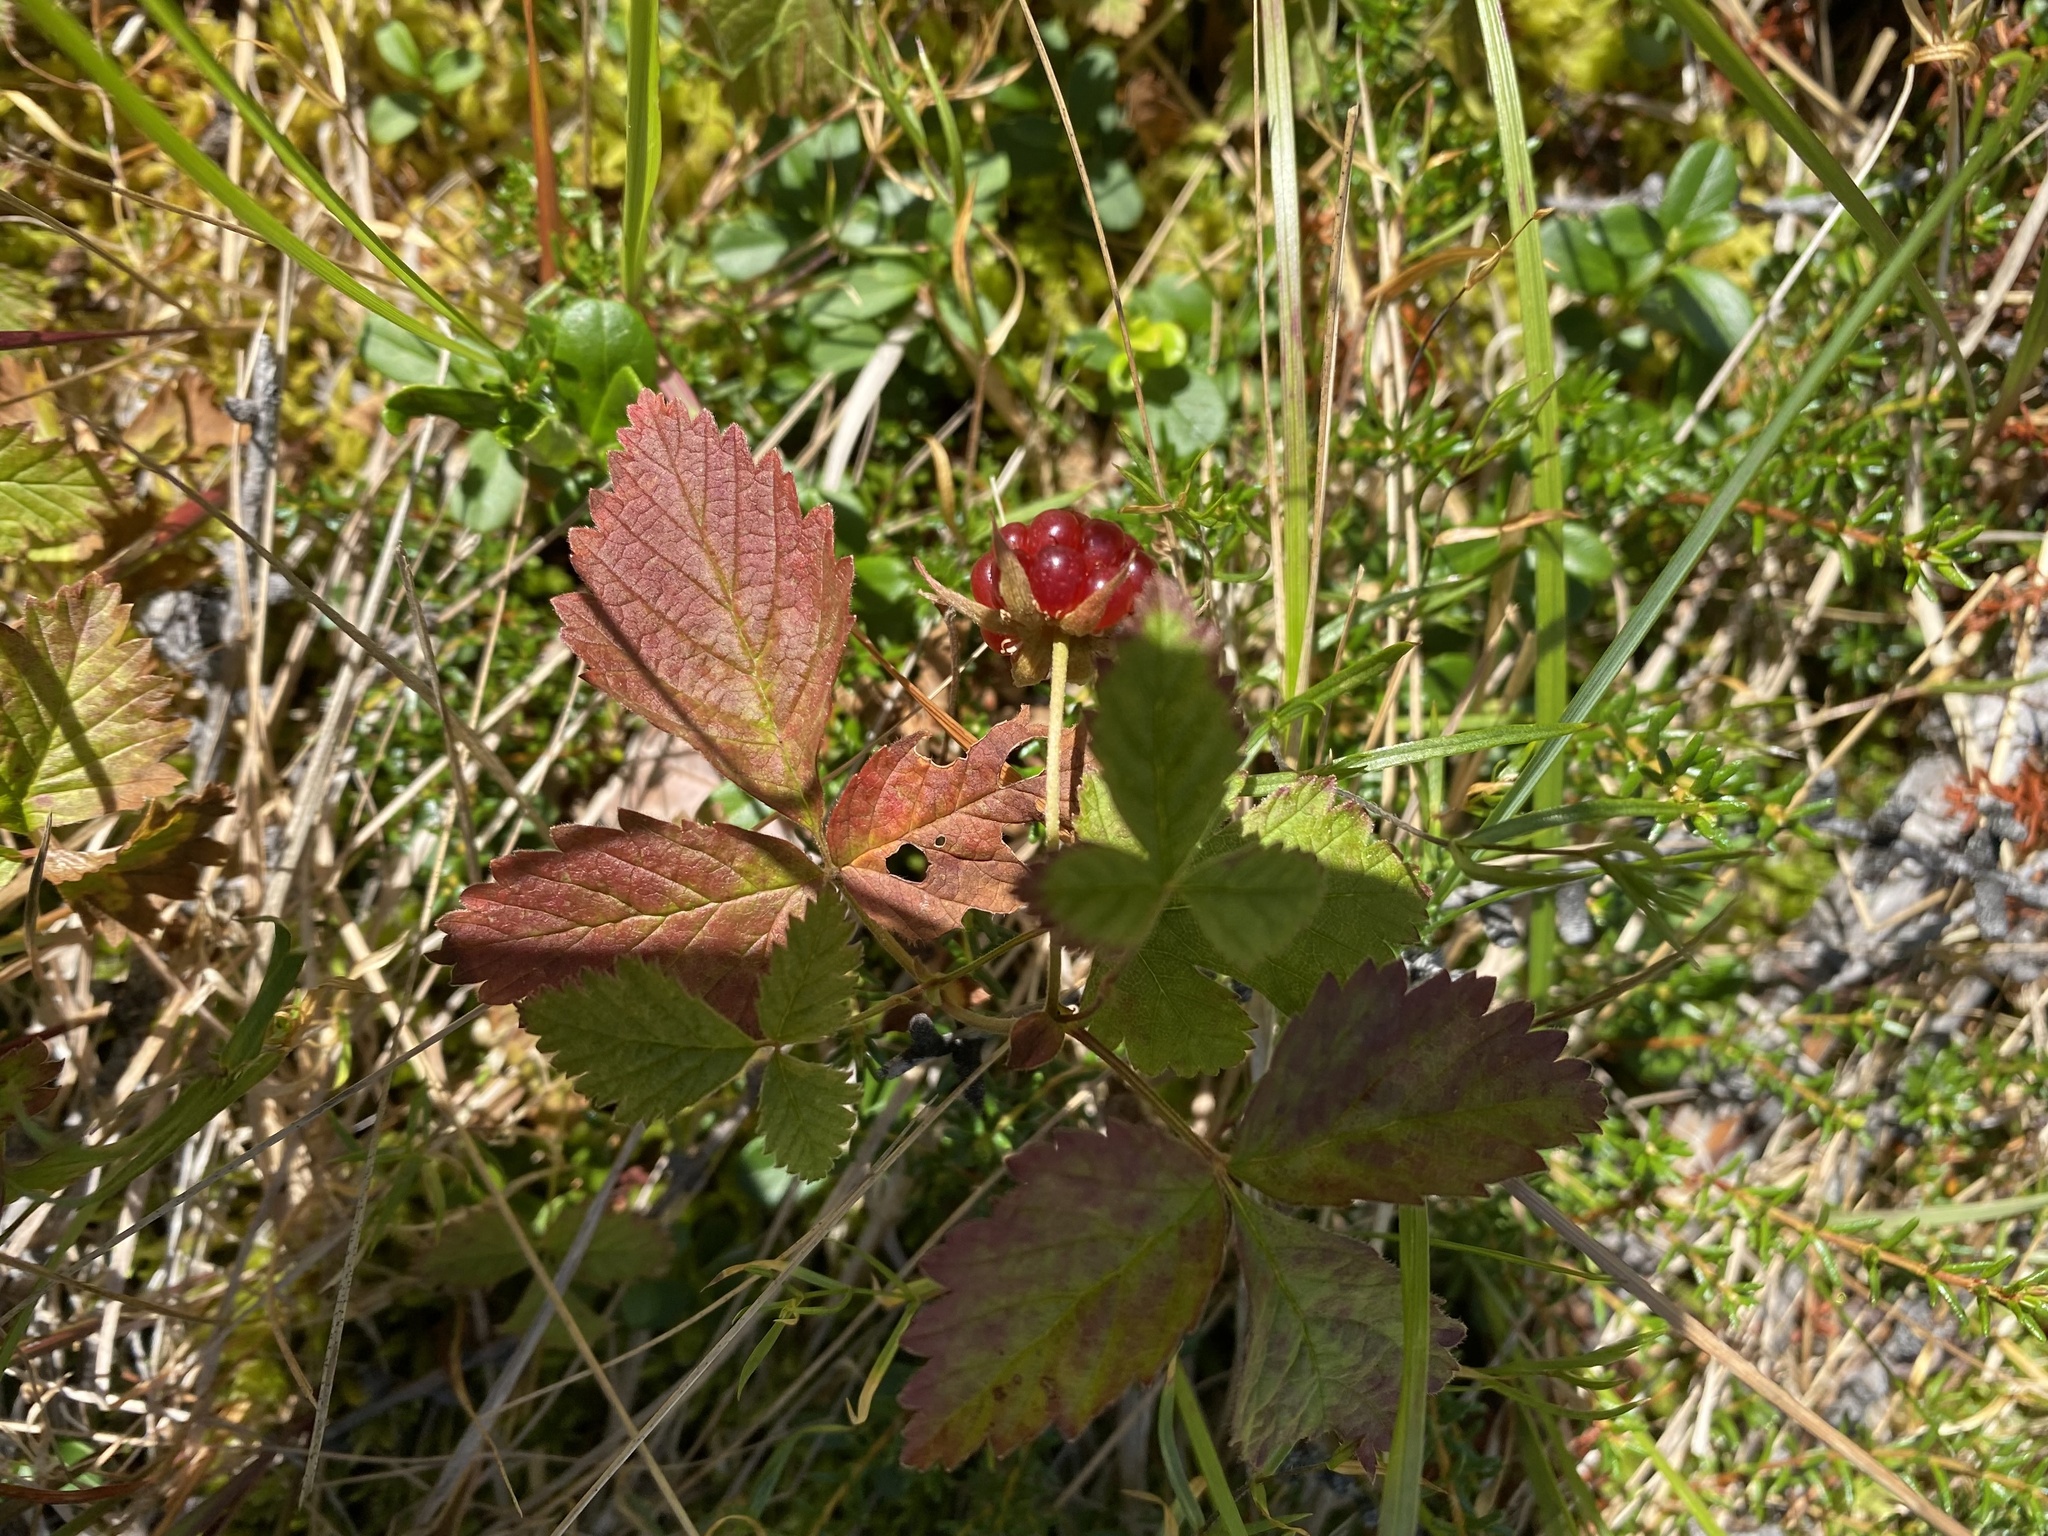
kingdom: Plantae
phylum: Tracheophyta
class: Magnoliopsida
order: Rosales
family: Rosaceae
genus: Rubus
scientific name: Rubus arcticus
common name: Arctic bramble
